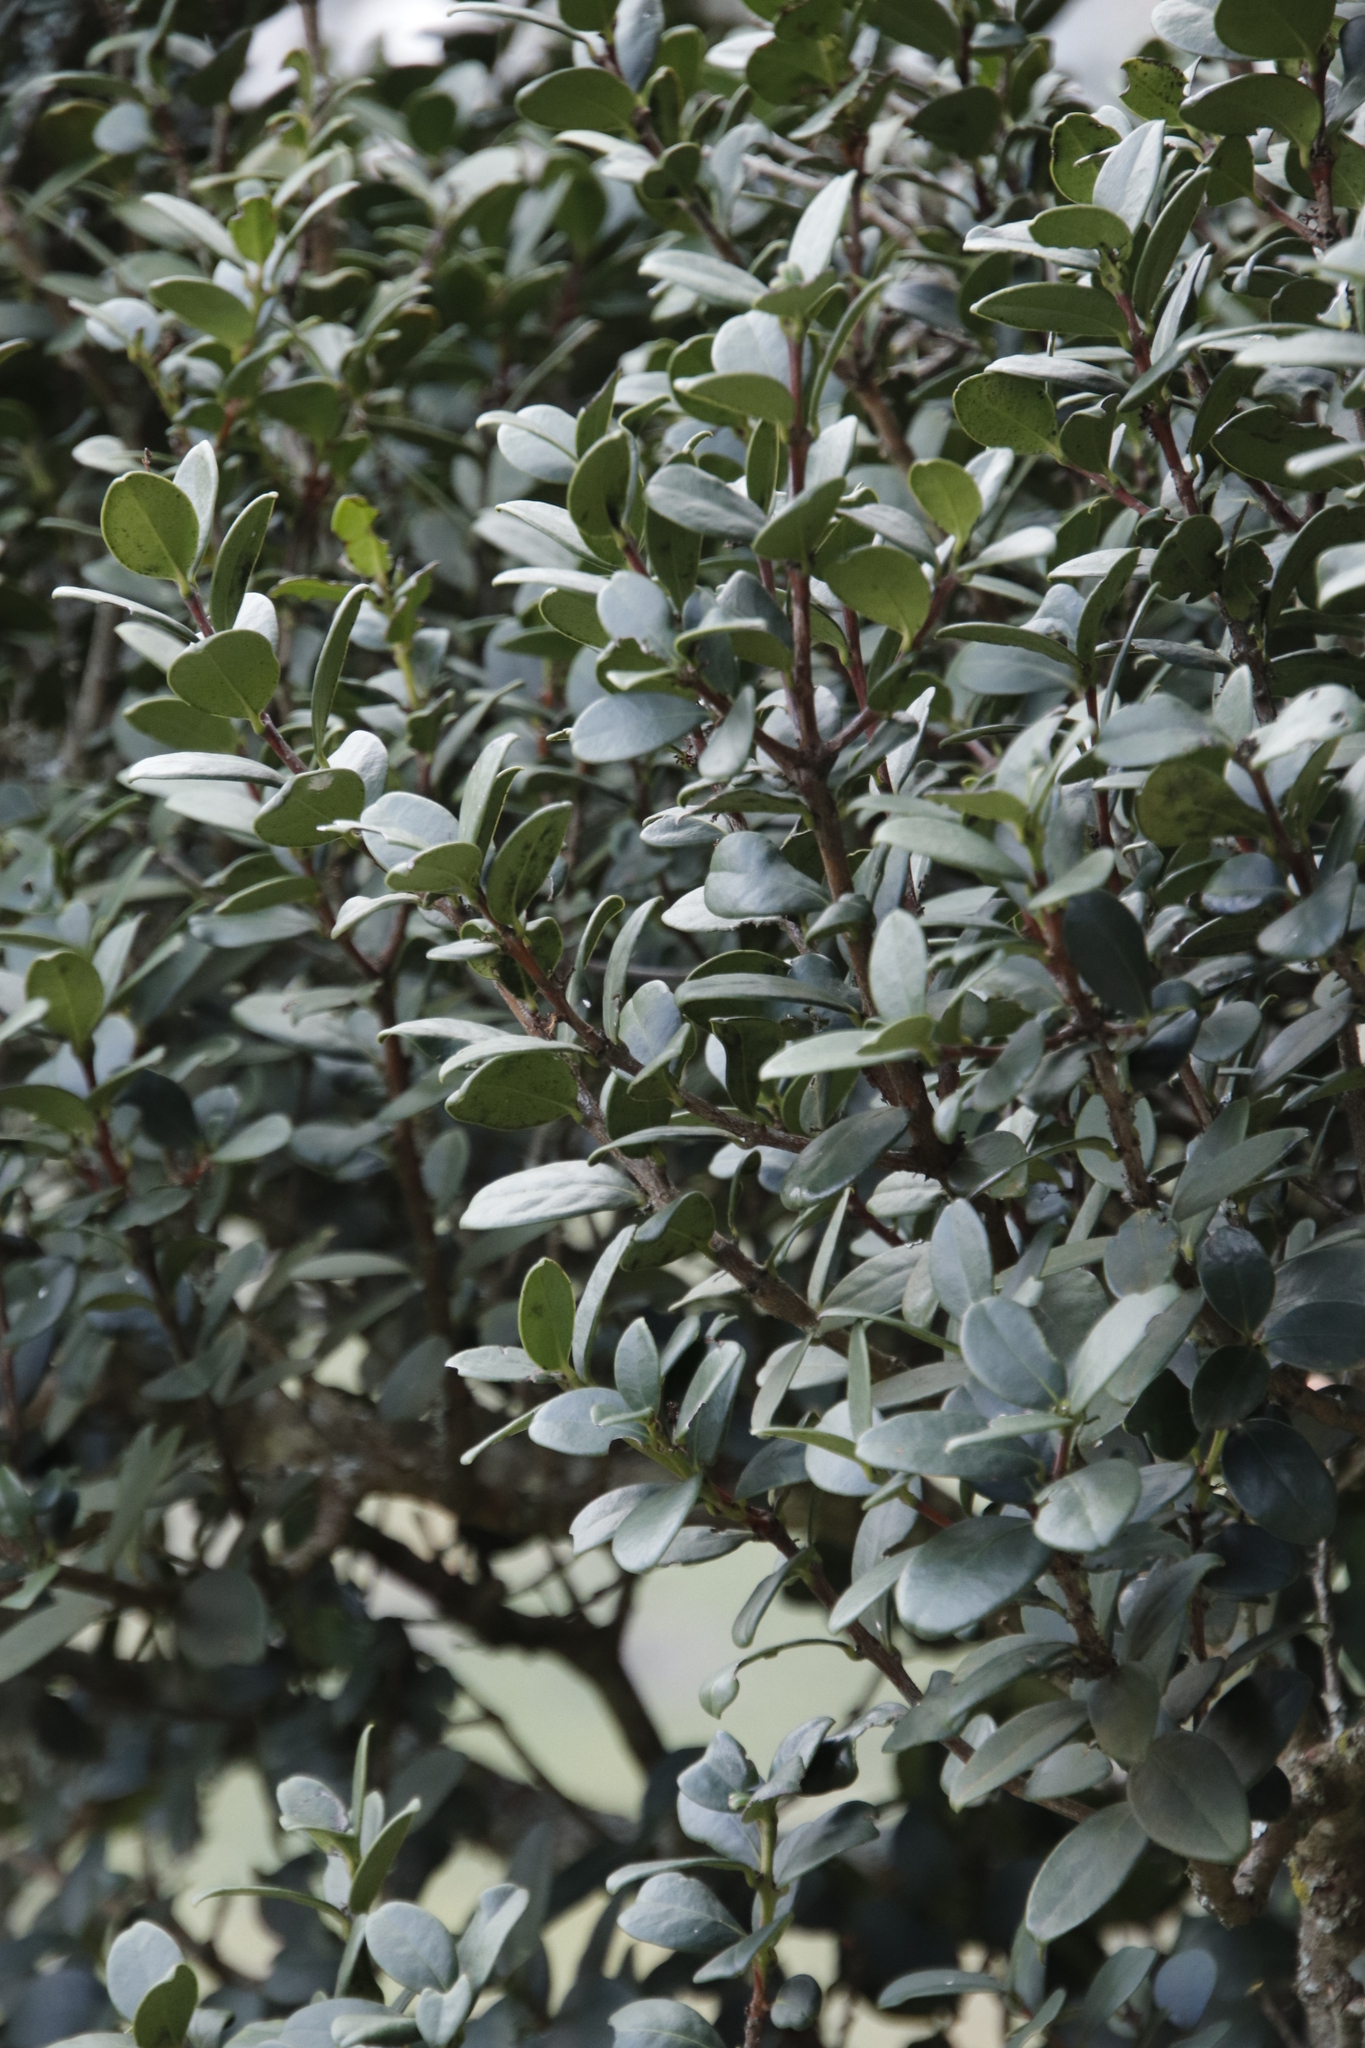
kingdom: Plantae
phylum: Tracheophyta
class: Magnoliopsida
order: Celastrales
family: Celastraceae
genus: Maurocenia
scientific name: Maurocenia frangula
